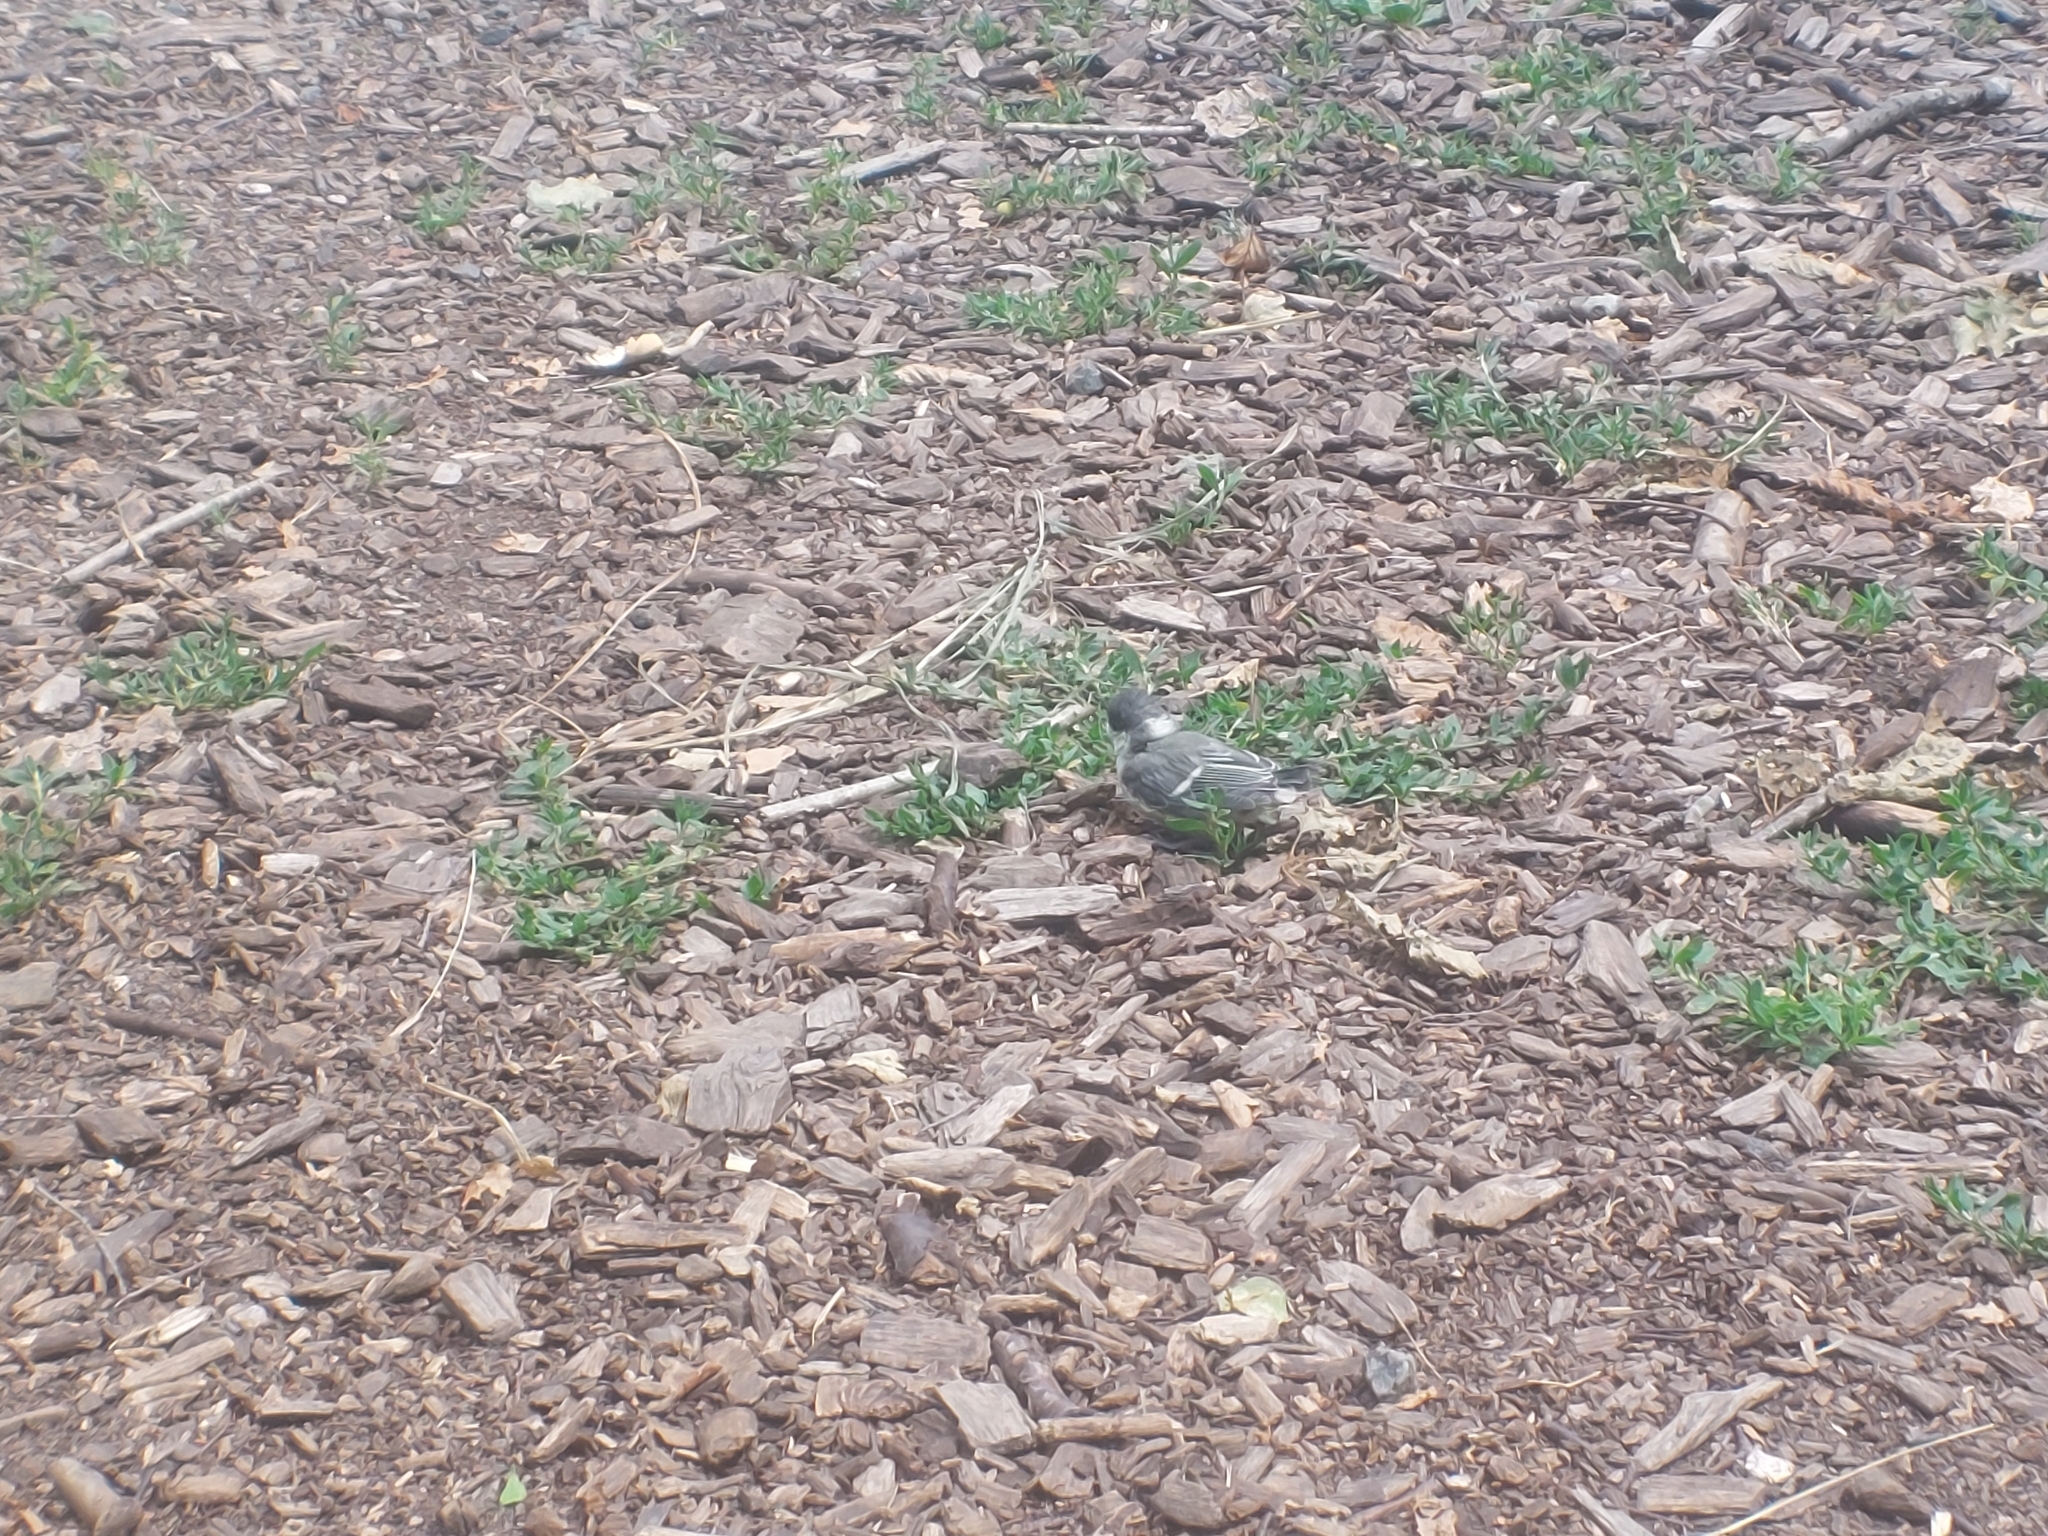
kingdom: Animalia
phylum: Chordata
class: Aves
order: Passeriformes
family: Paridae
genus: Parus
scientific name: Parus major
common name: Great tit
